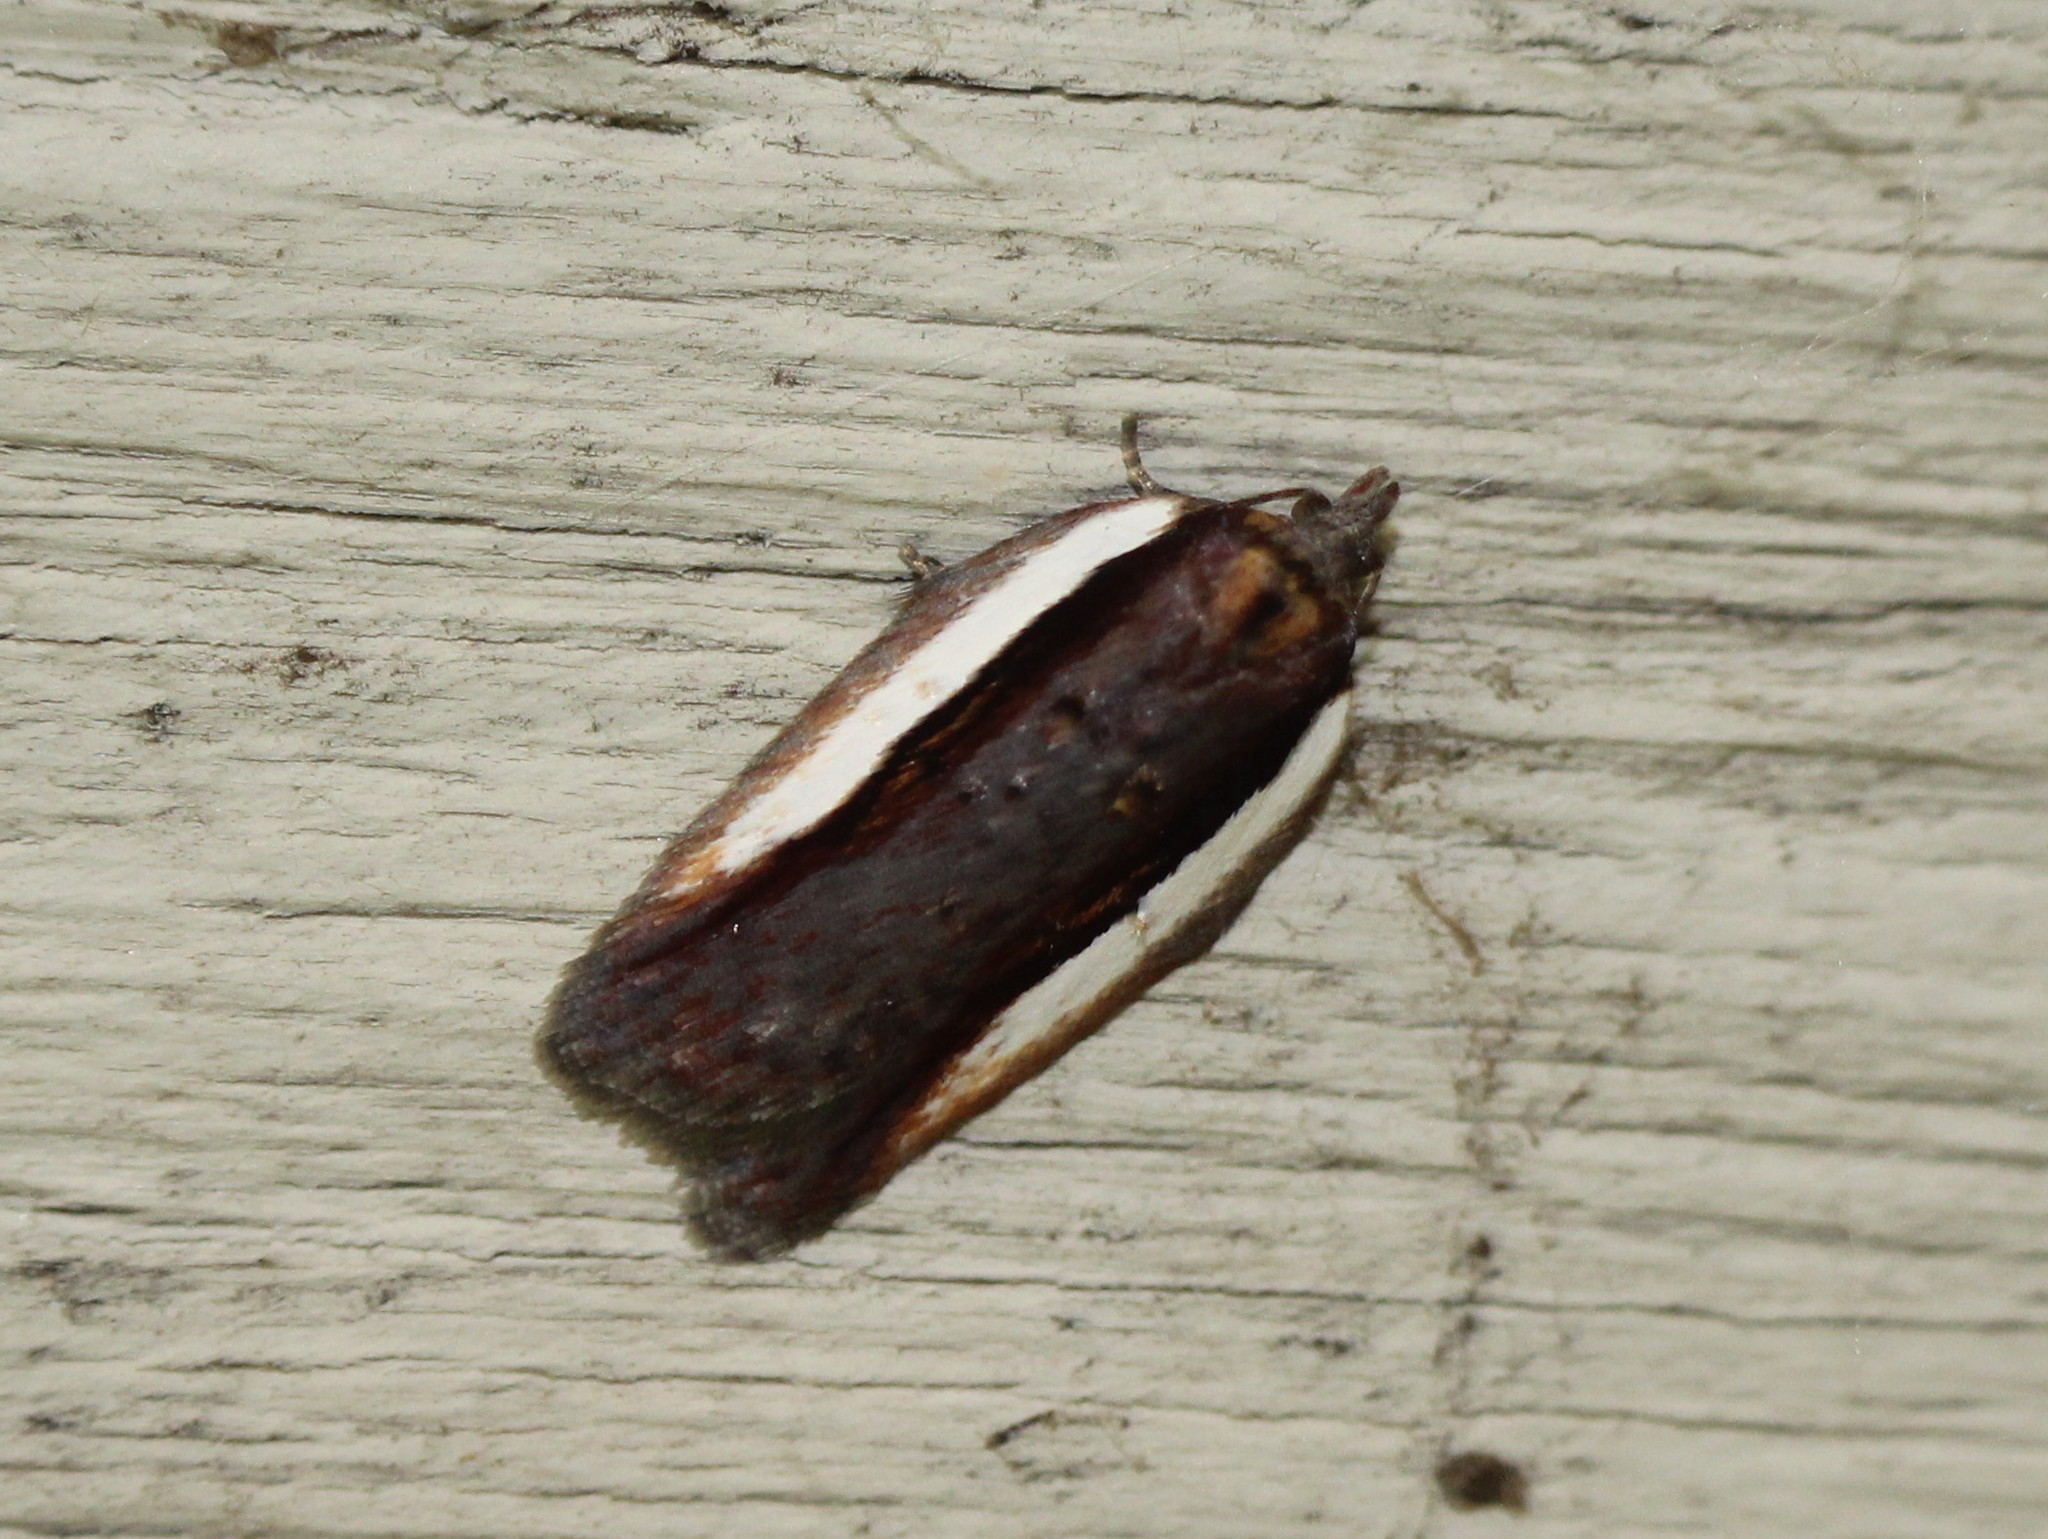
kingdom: Animalia
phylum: Arthropoda
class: Insecta
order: Lepidoptera
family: Tortricidae
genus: Acleris
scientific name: Acleris celiana
